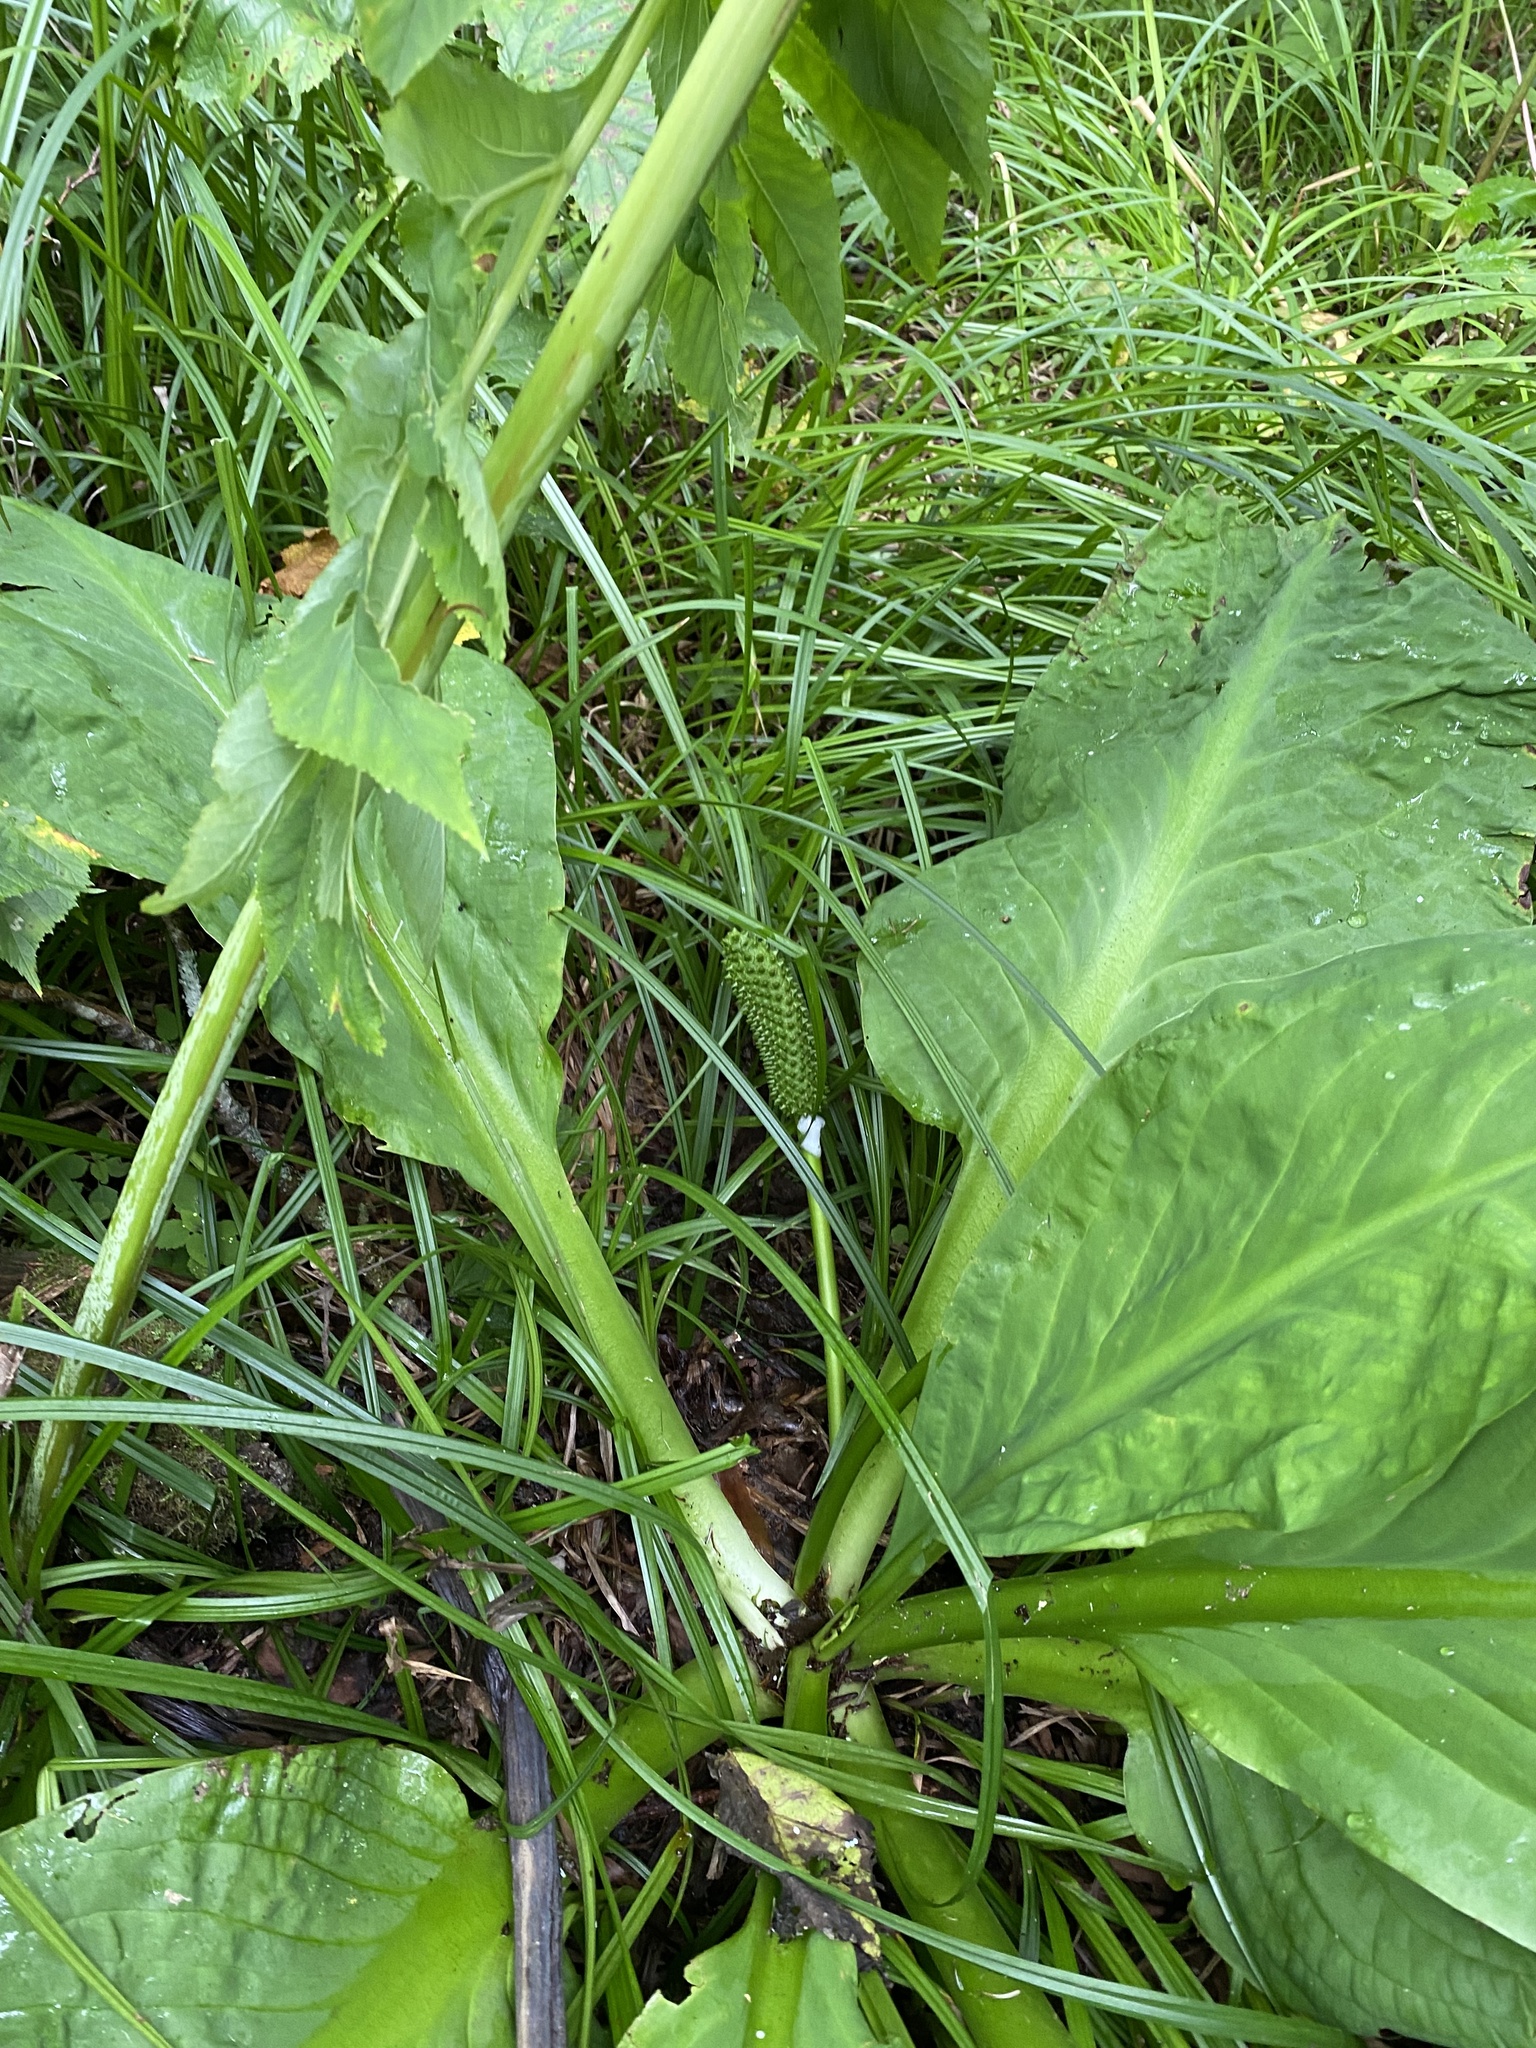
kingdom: Plantae
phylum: Tracheophyta
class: Liliopsida
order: Alismatales
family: Araceae
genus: Lysichiton
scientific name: Lysichiton camtschatcensis
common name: Asian skunk-cabbage
